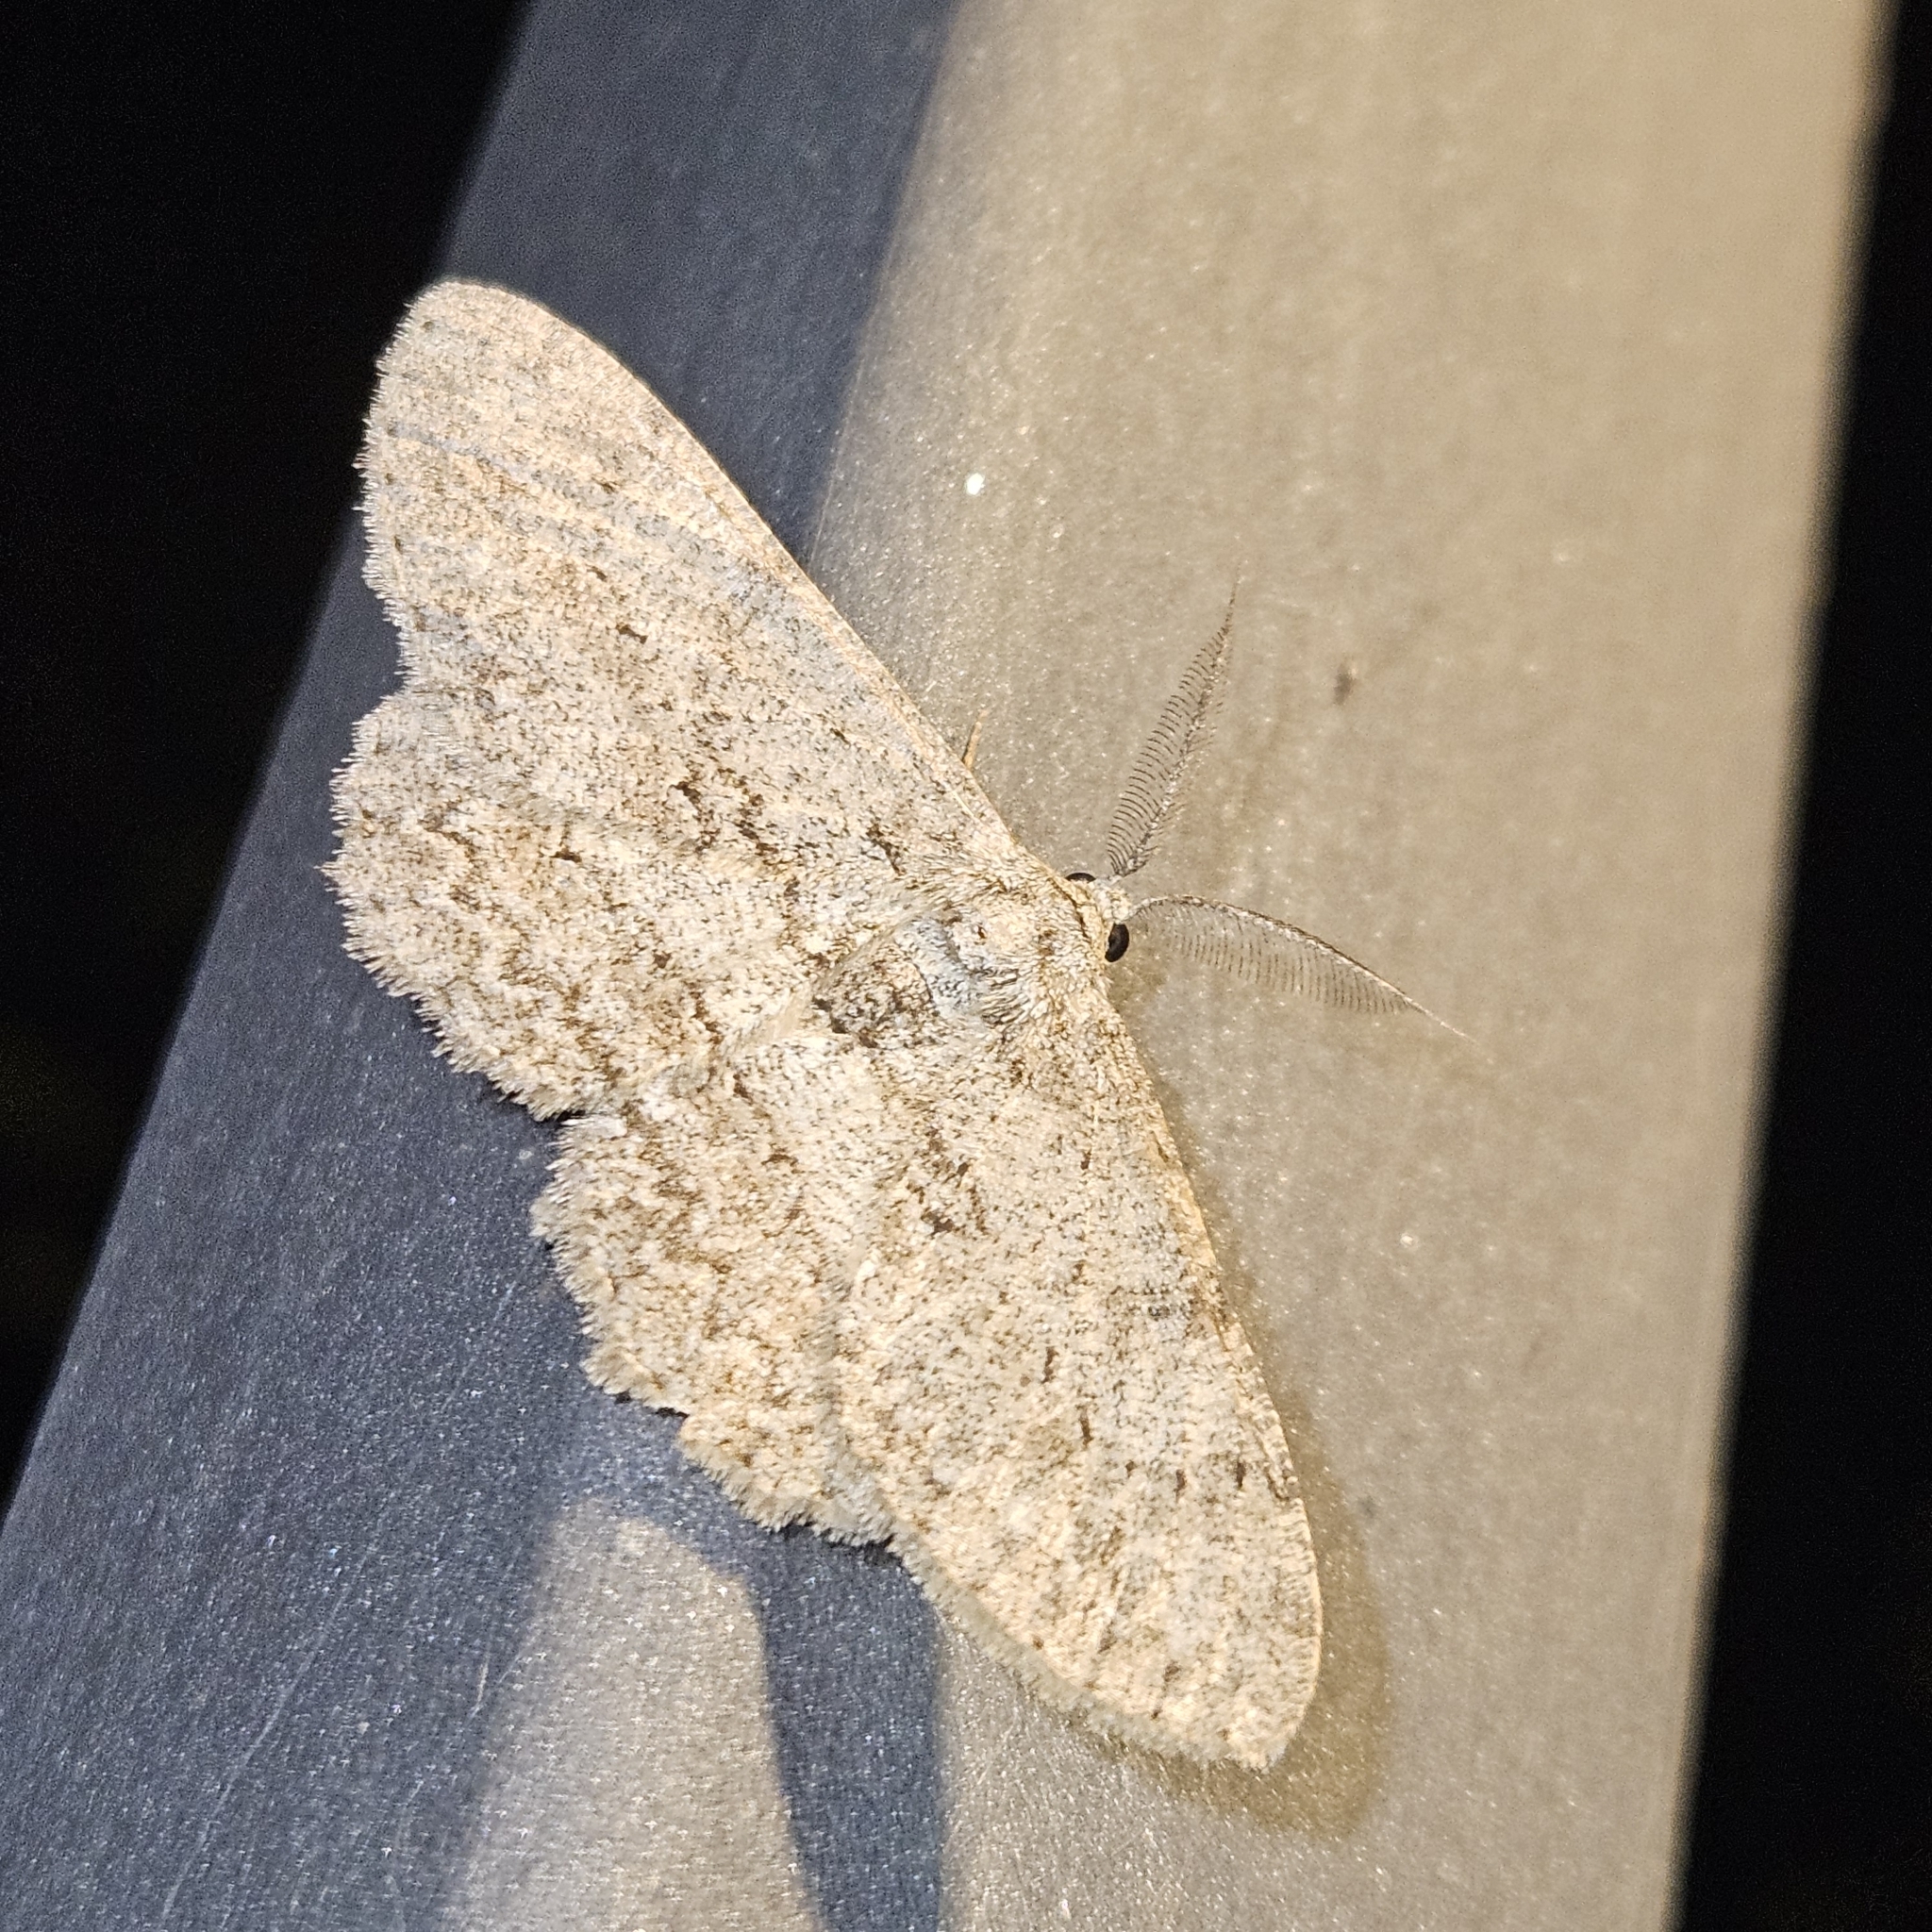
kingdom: Animalia
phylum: Arthropoda
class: Insecta
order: Lepidoptera
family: Geometridae
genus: Hypomecis
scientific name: Hypomecis punctinalis
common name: Pale oak beauty
